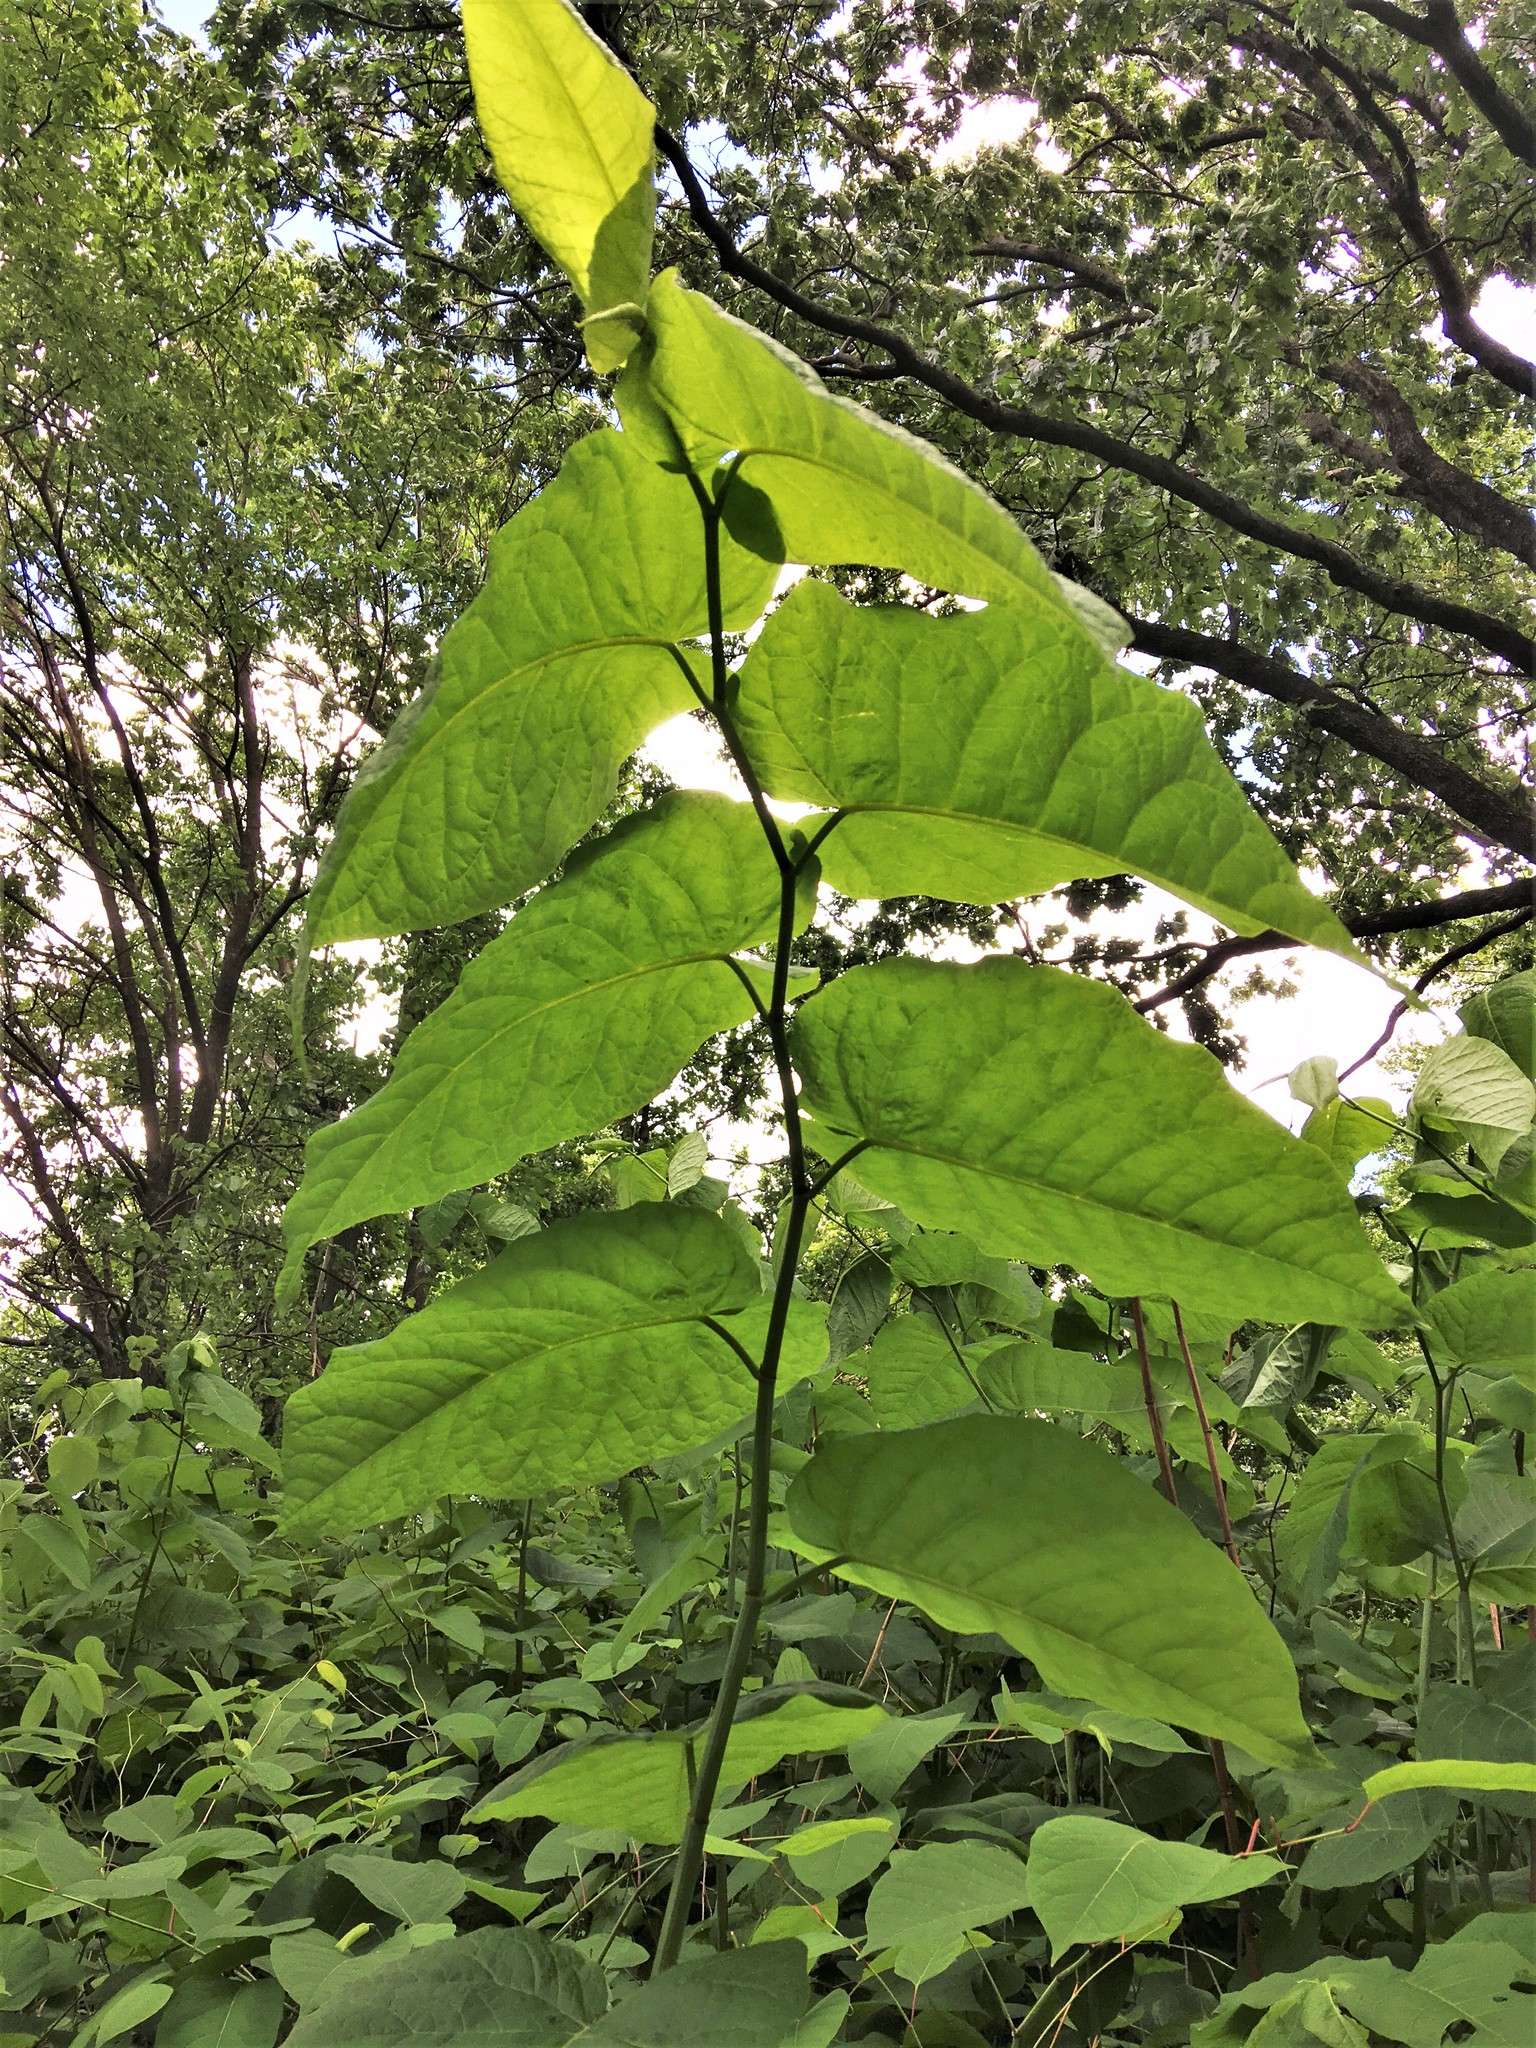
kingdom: Plantae
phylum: Tracheophyta
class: Magnoliopsida
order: Caryophyllales
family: Polygonaceae
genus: Reynoutria
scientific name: Reynoutria sachalinensis
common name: Giant knotweed
